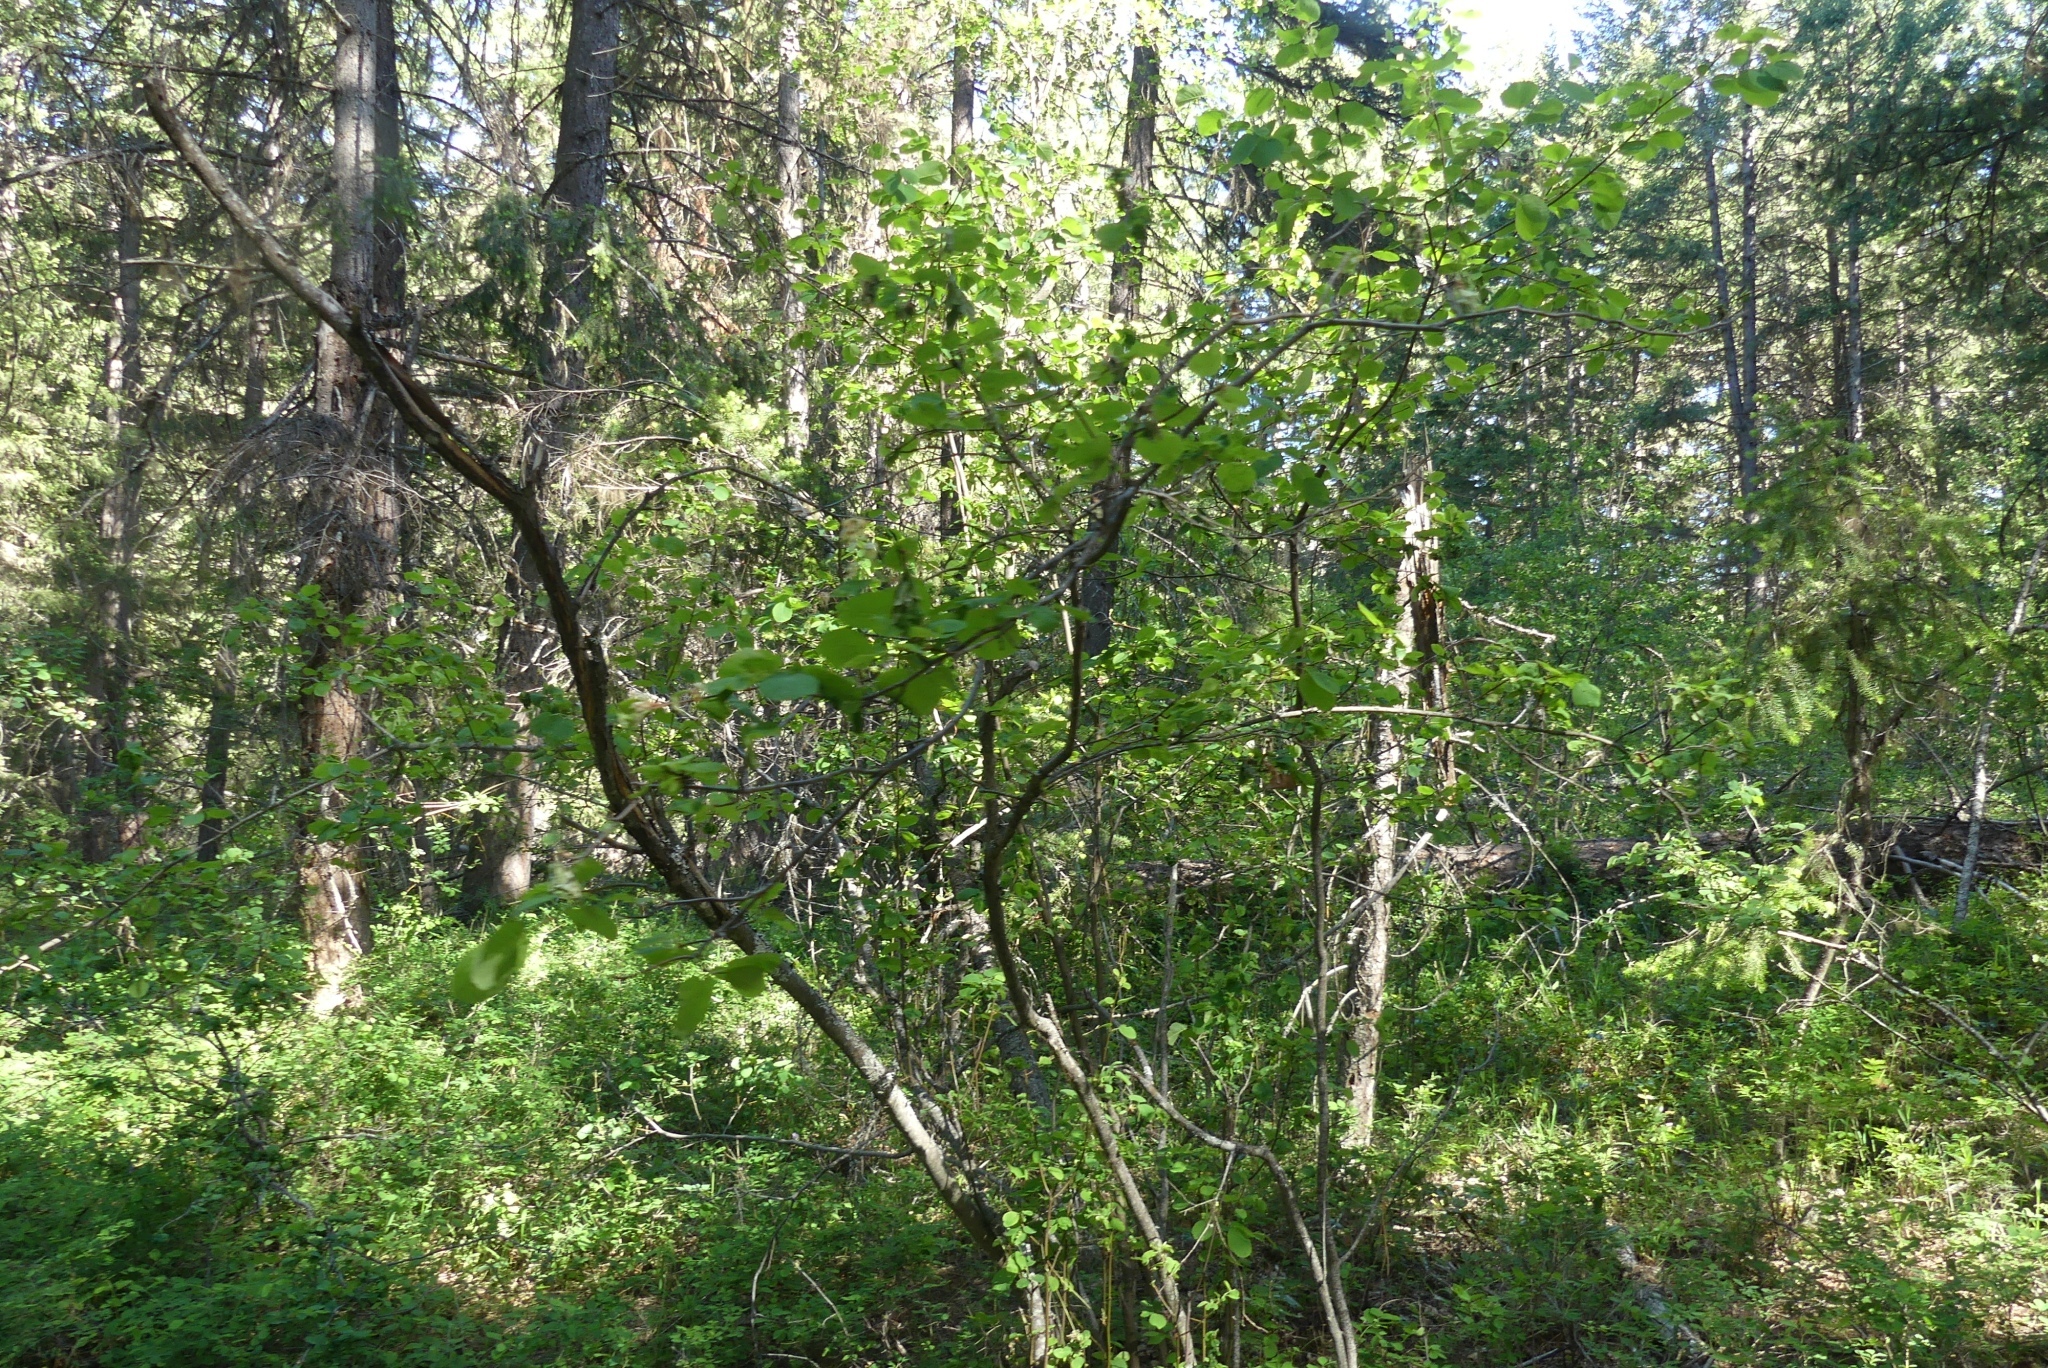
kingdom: Plantae
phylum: Tracheophyta
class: Magnoliopsida
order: Rosales
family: Rosaceae
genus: Amelanchier
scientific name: Amelanchier alnifolia
